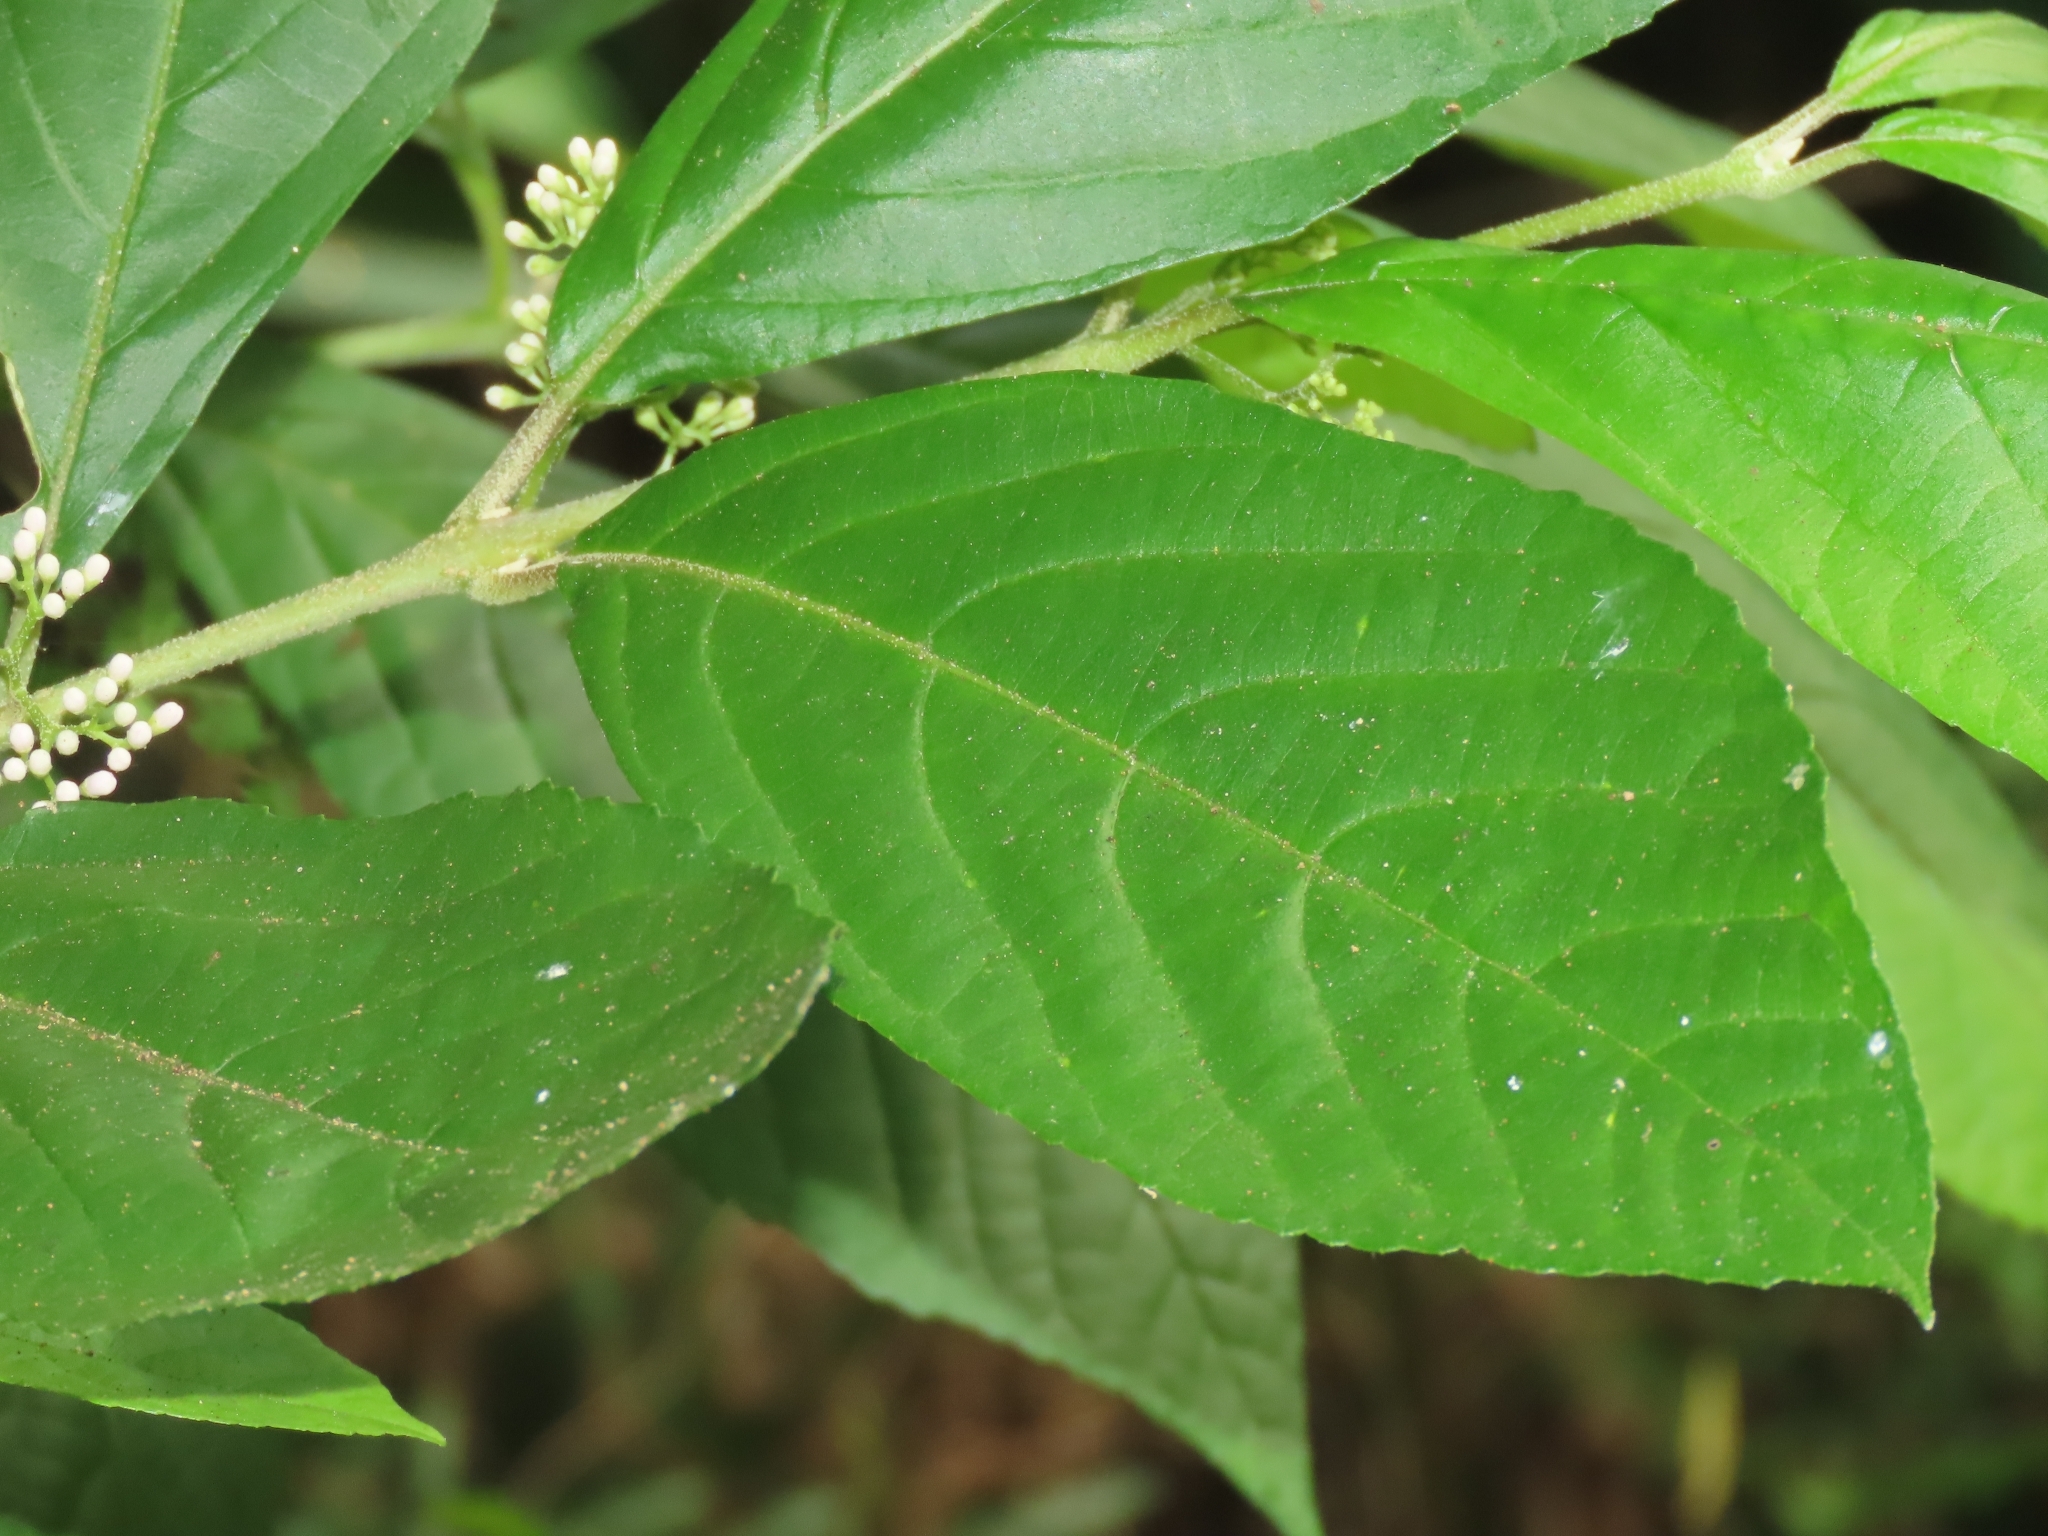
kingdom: Plantae
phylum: Tracheophyta
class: Magnoliopsida
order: Lamiales
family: Lamiaceae
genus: Callicarpa
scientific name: Callicarpa japonica
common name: Japanese beauty-berry
